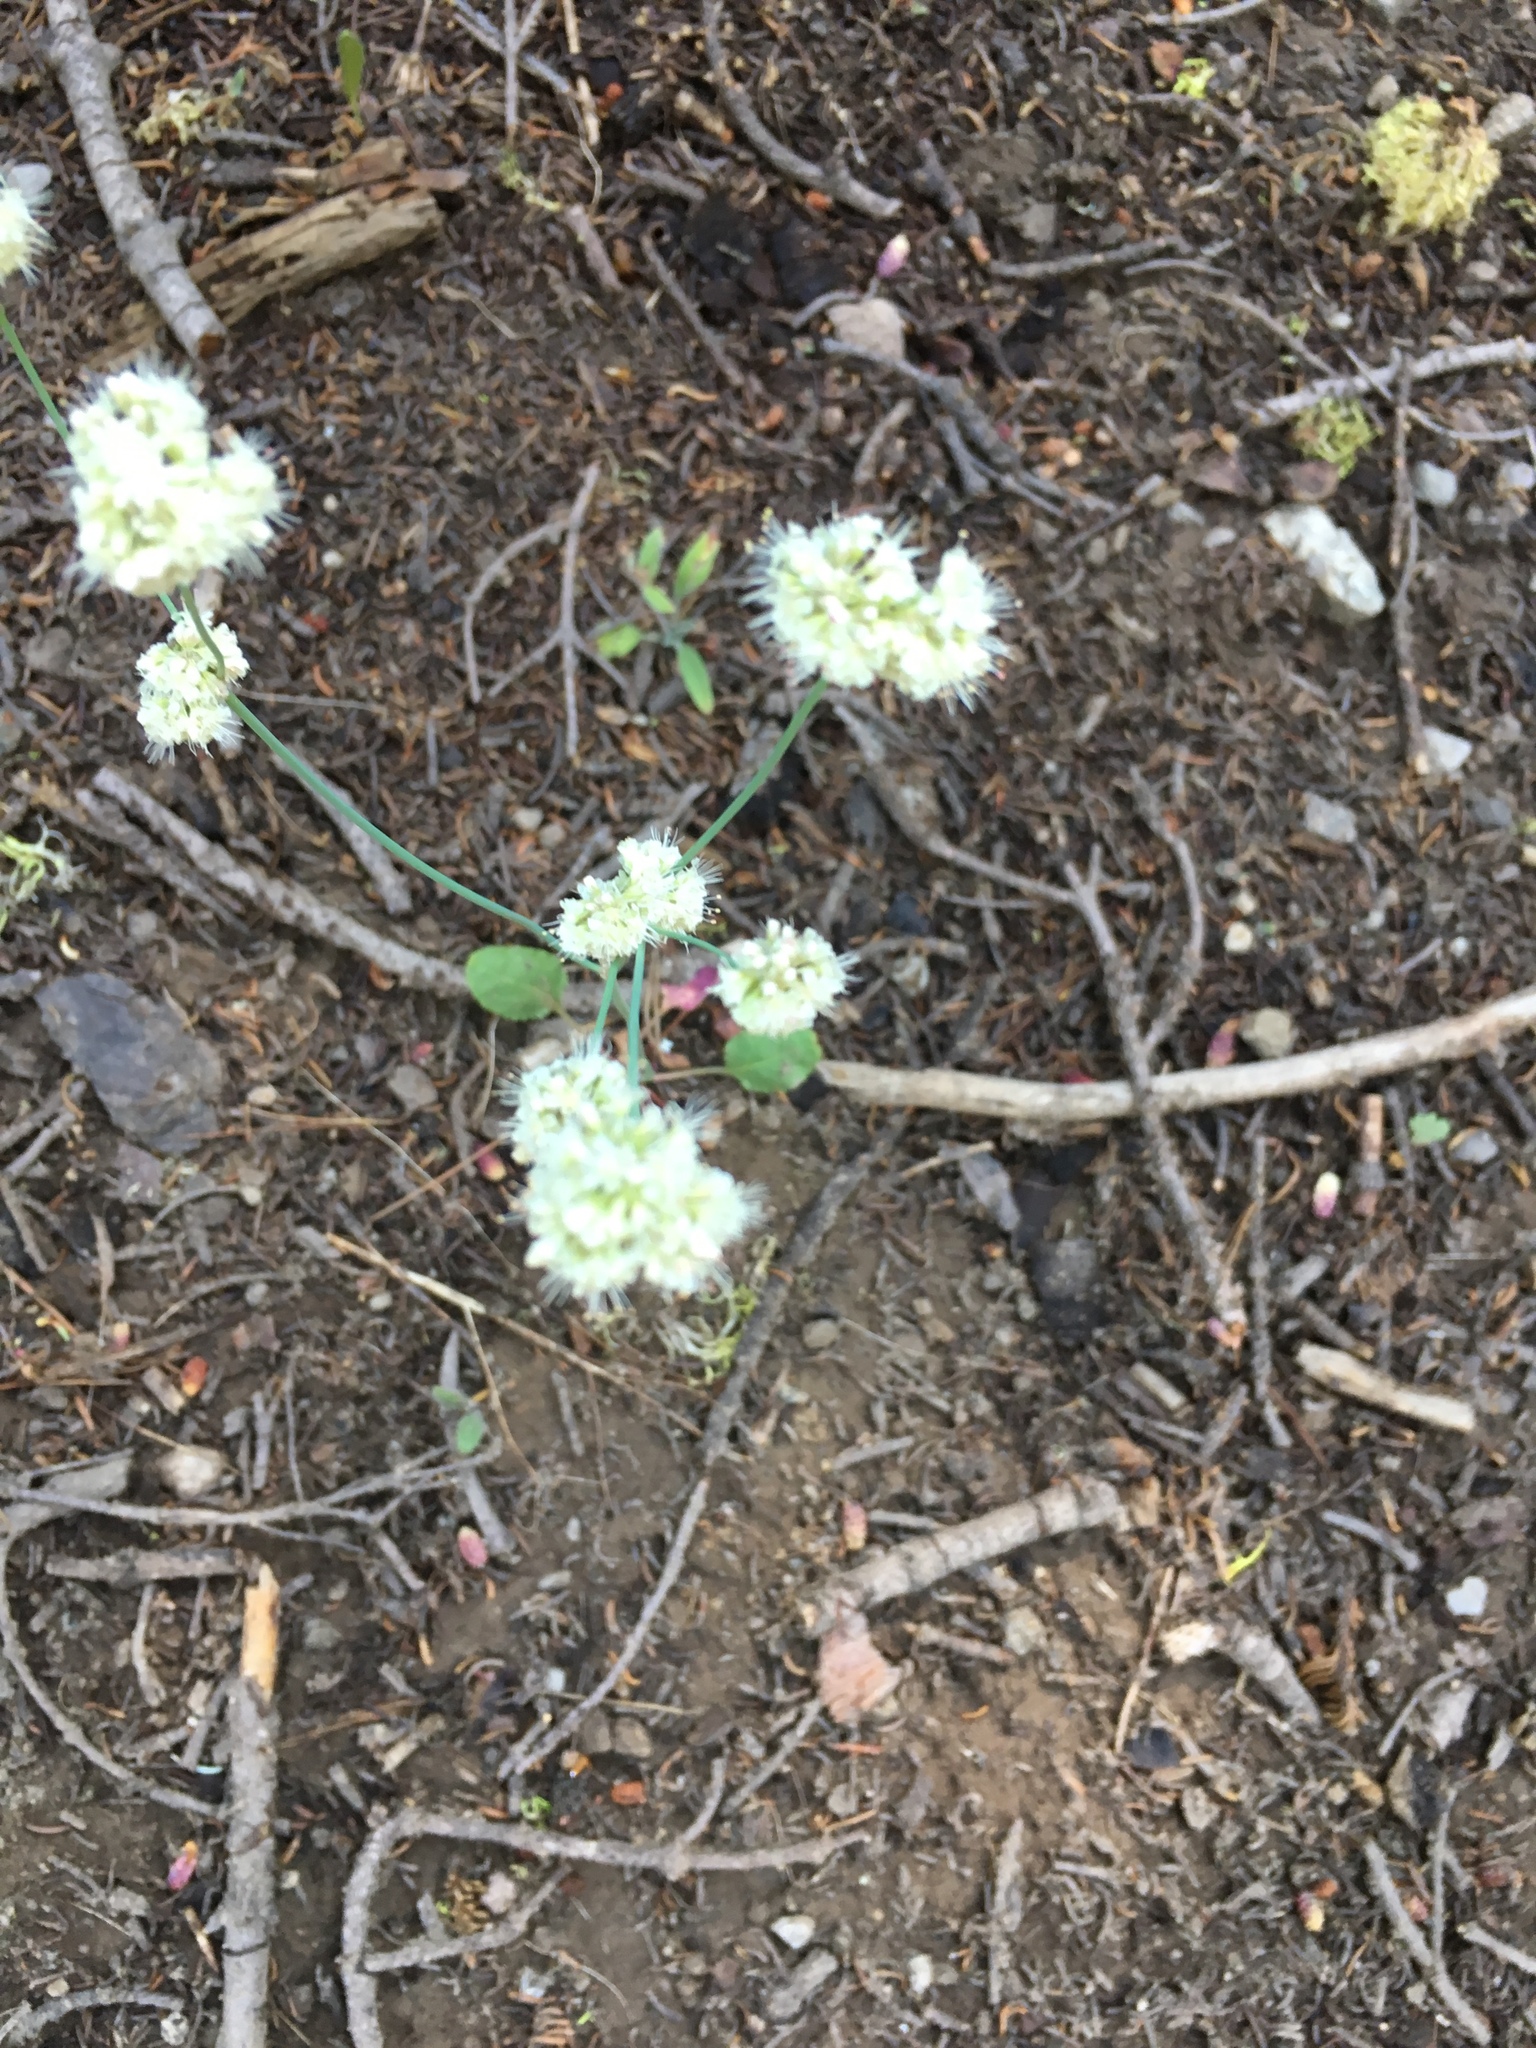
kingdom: Plantae
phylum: Tracheophyta
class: Magnoliopsida
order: Caryophyllales
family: Polygonaceae
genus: Eriogonum
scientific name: Eriogonum nudum
